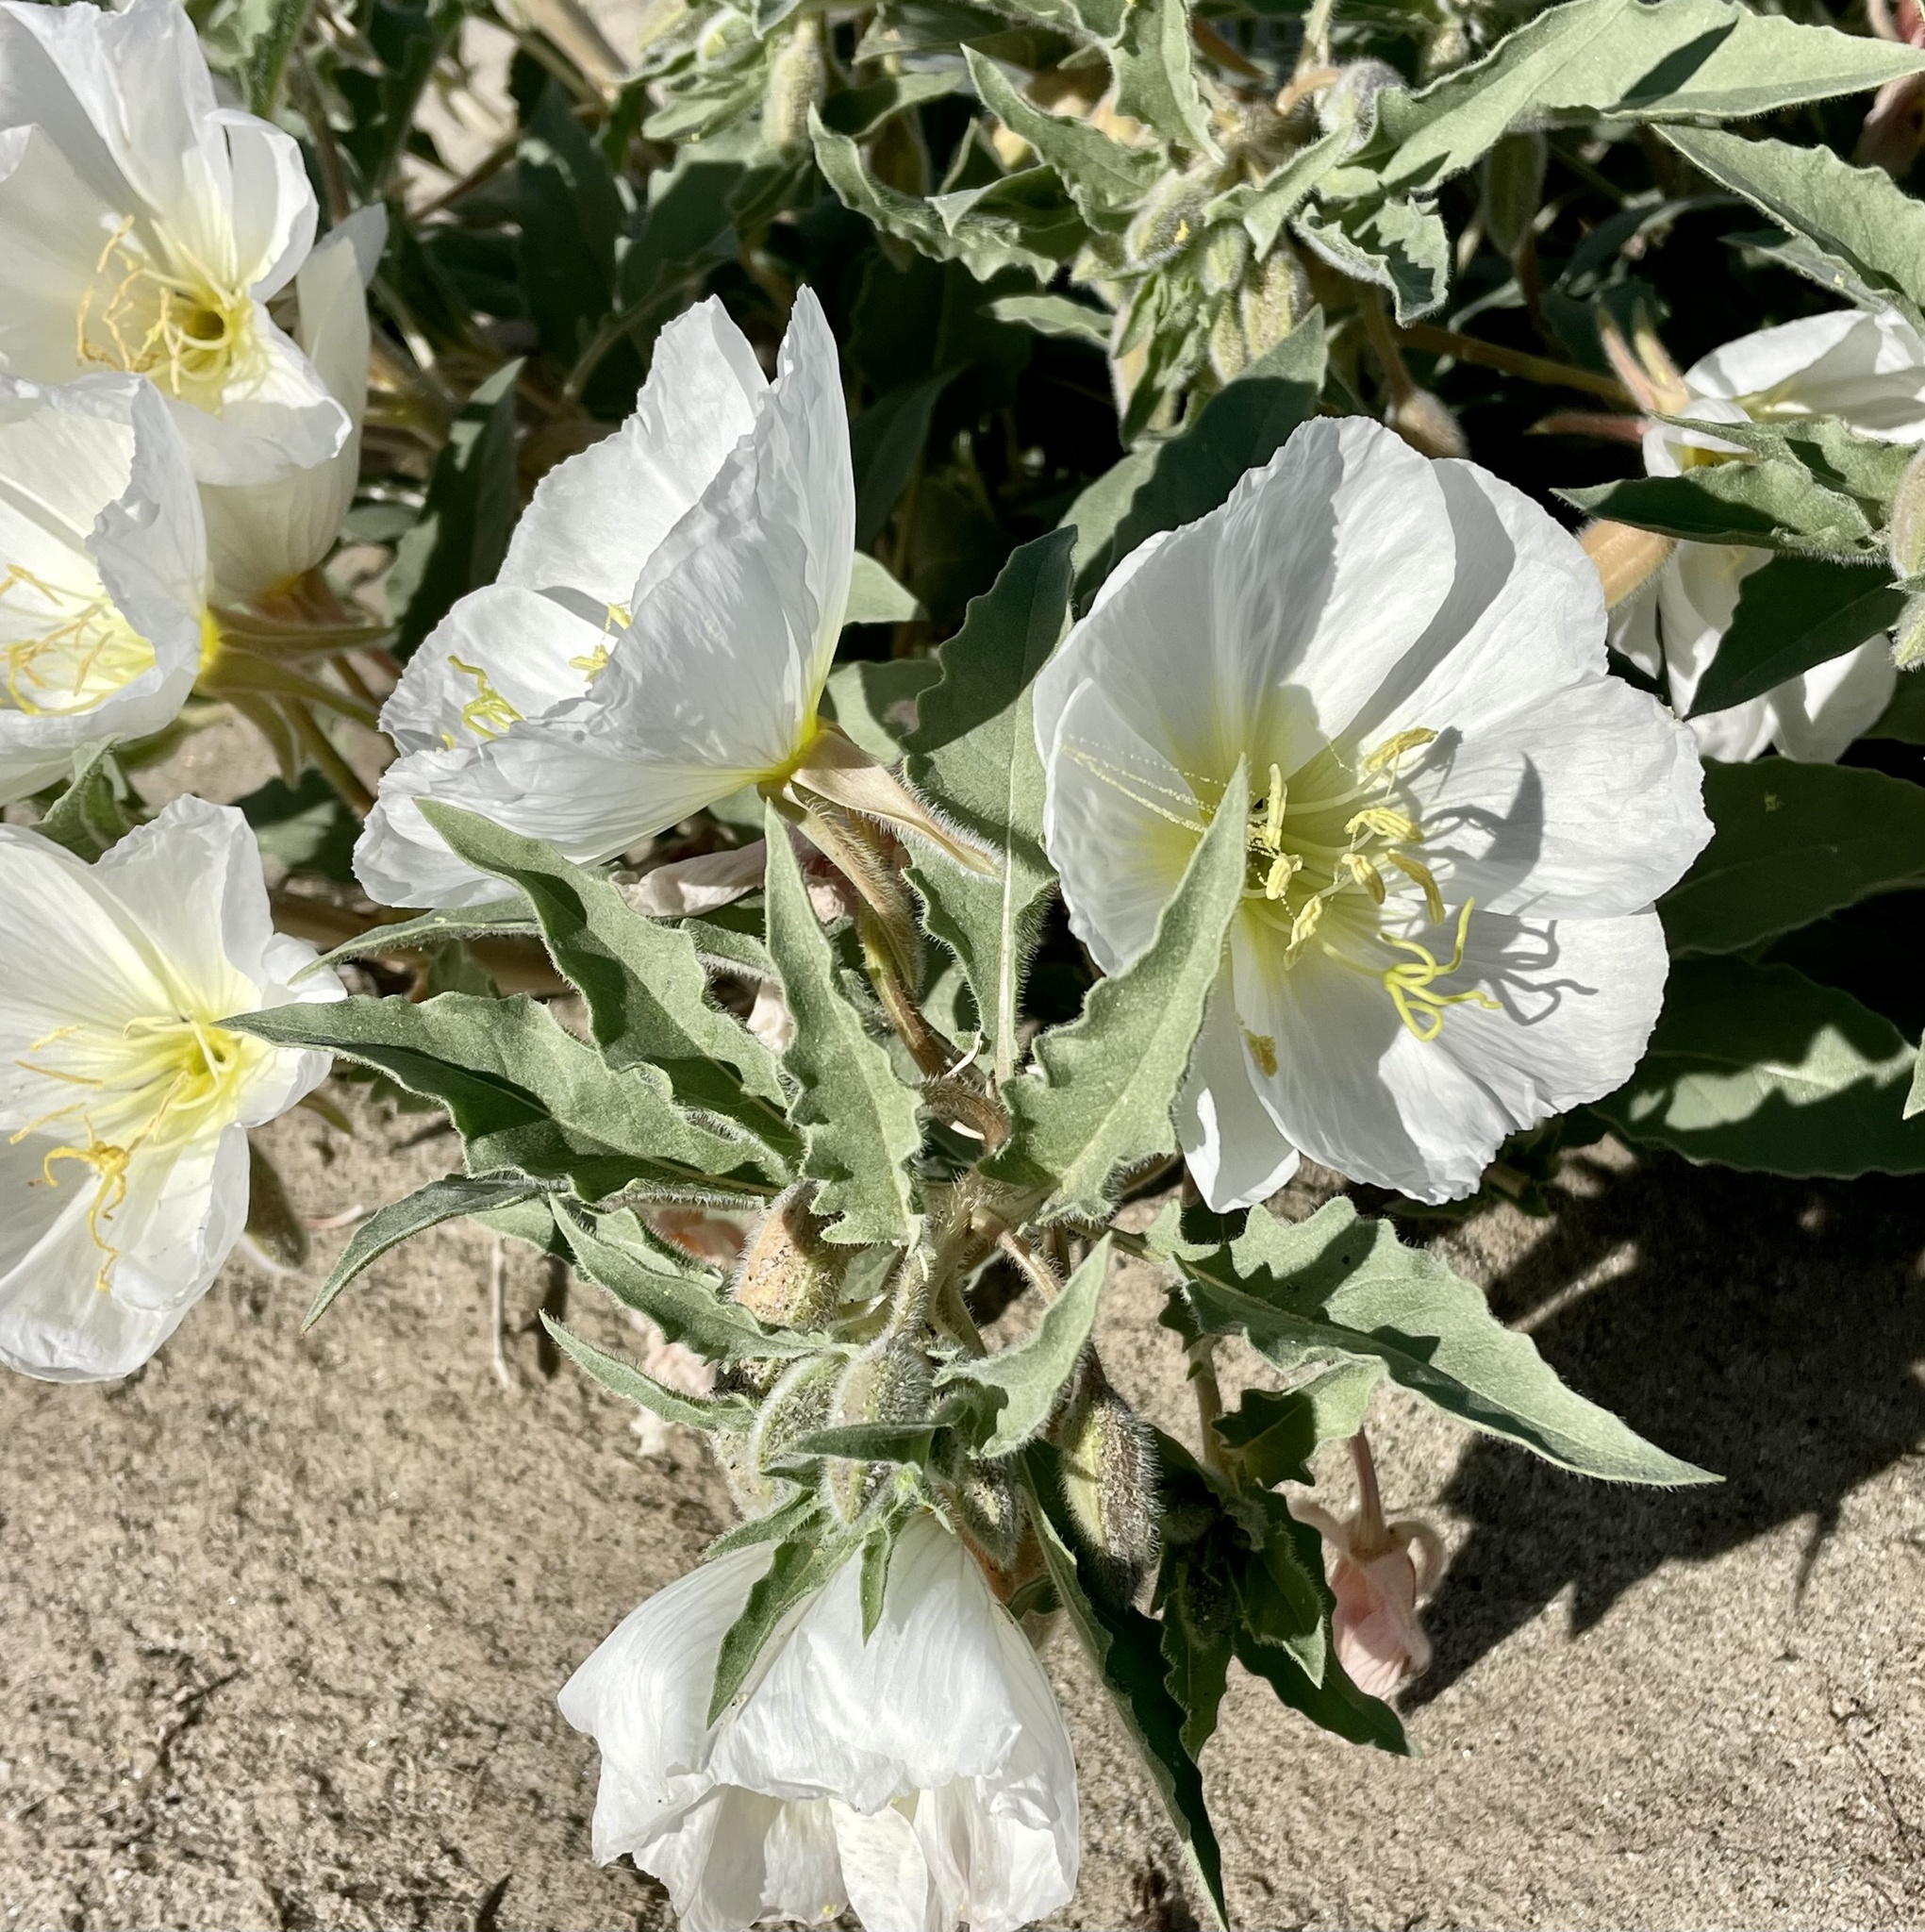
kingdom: Plantae
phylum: Tracheophyta
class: Magnoliopsida
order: Myrtales
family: Onagraceae
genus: Oenothera
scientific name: Oenothera deltoides
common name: Basket evening-primrose
